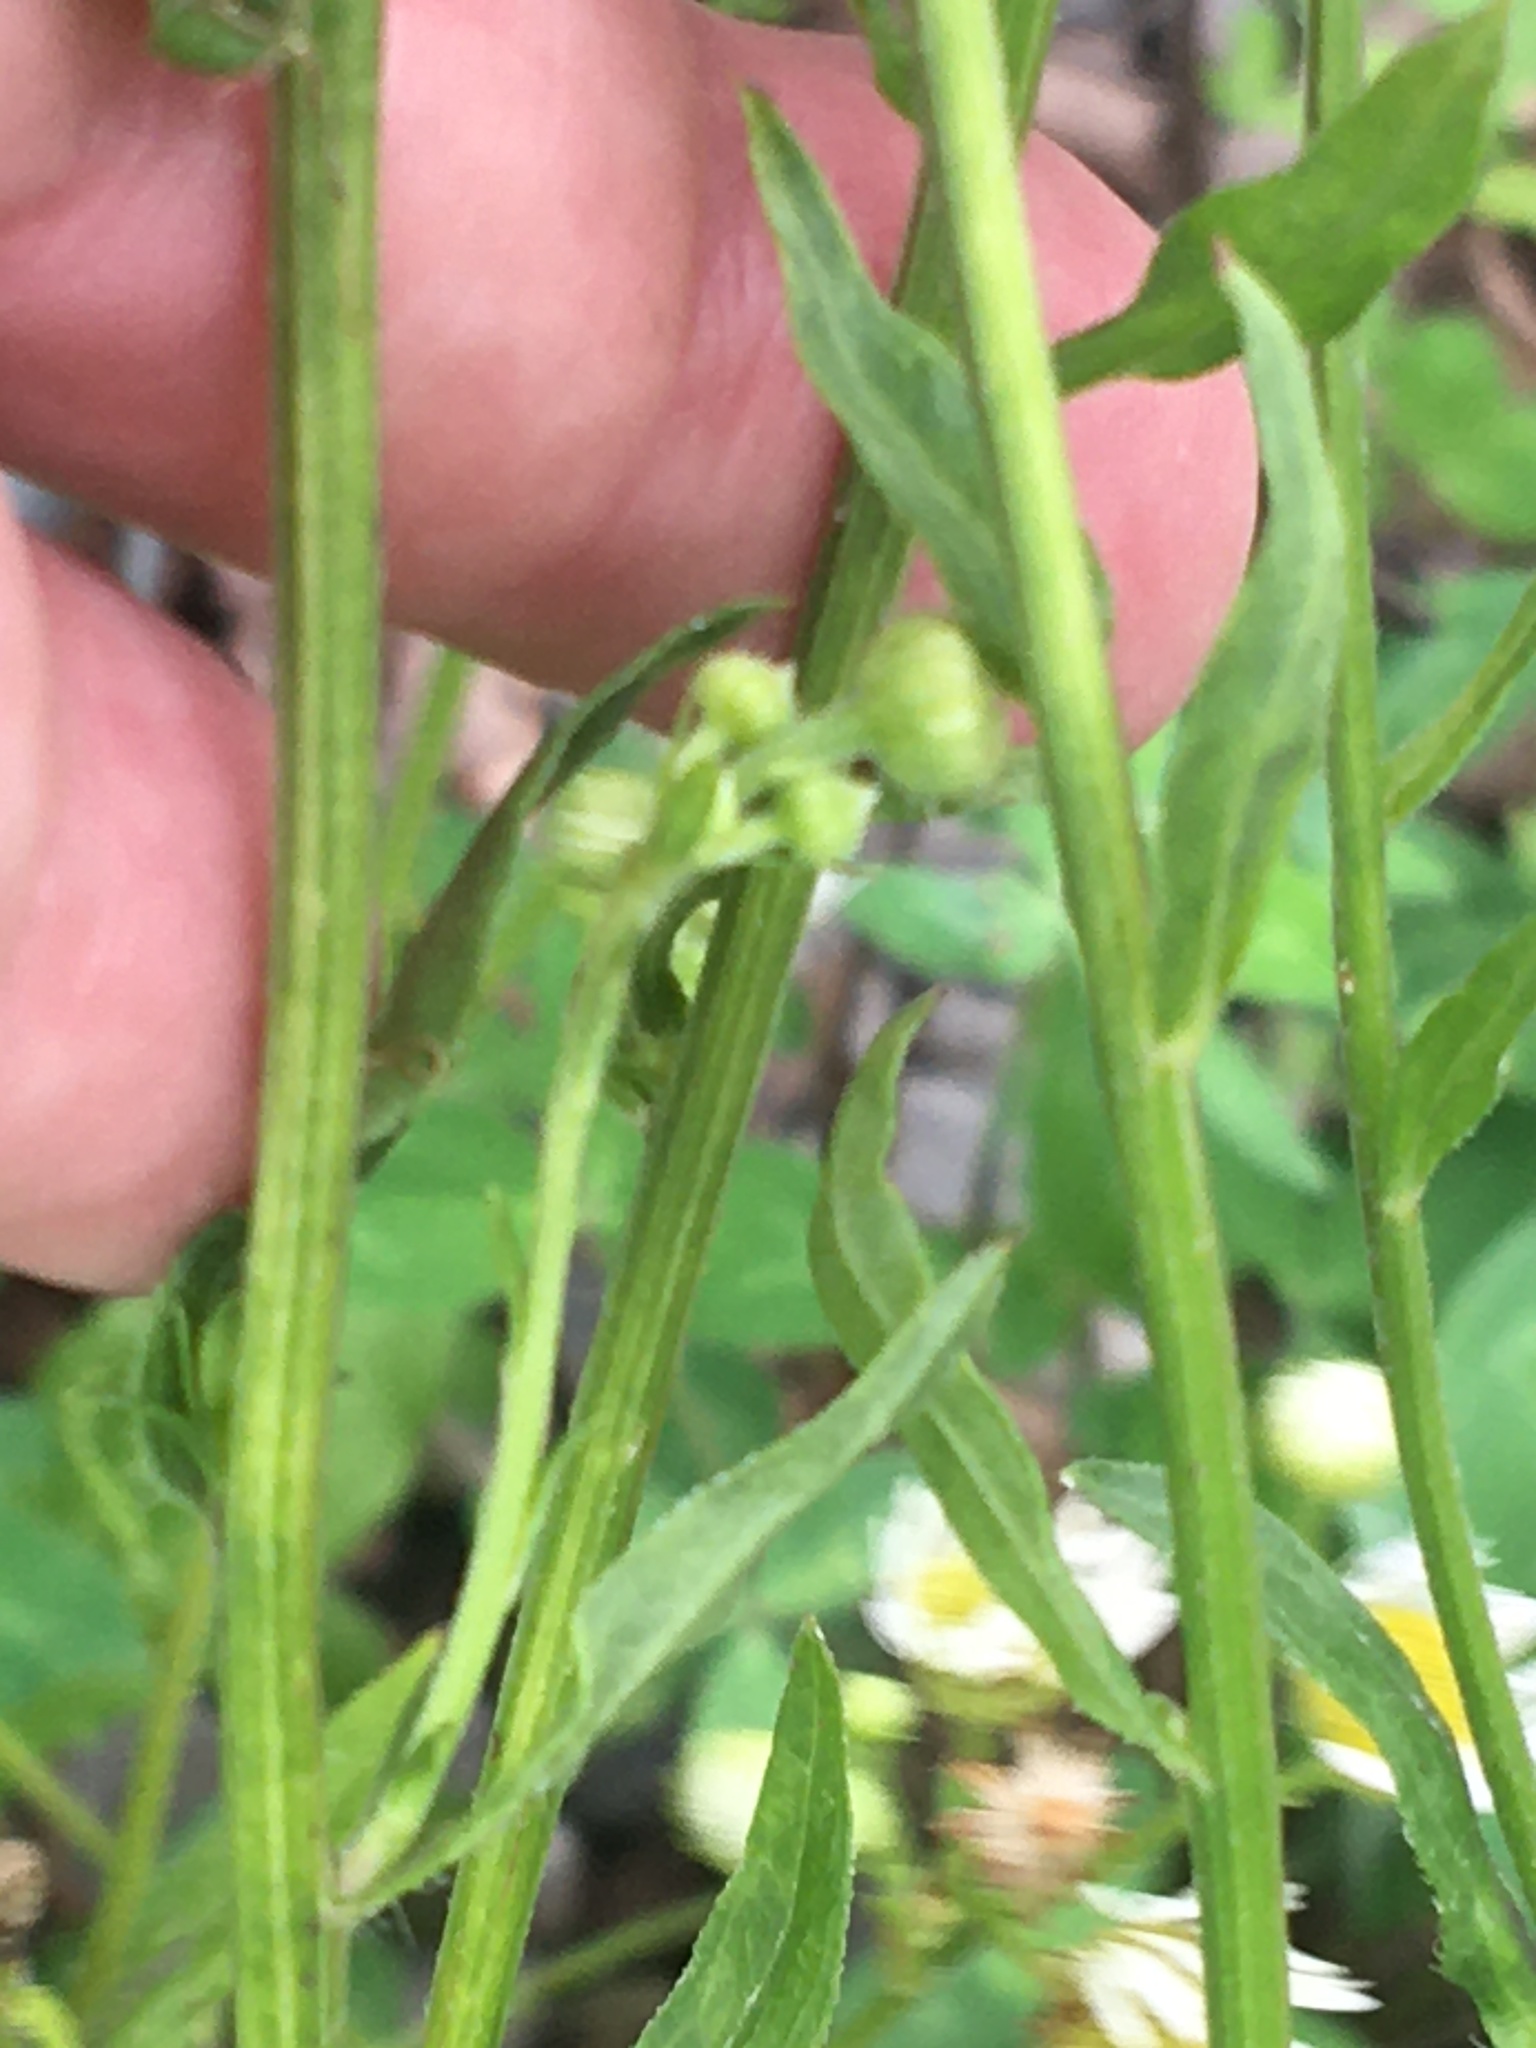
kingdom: Plantae
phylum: Tracheophyta
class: Magnoliopsida
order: Asterales
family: Asteraceae
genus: Erigeron
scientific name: Erigeron strigosus
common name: Common eastern fleabane
